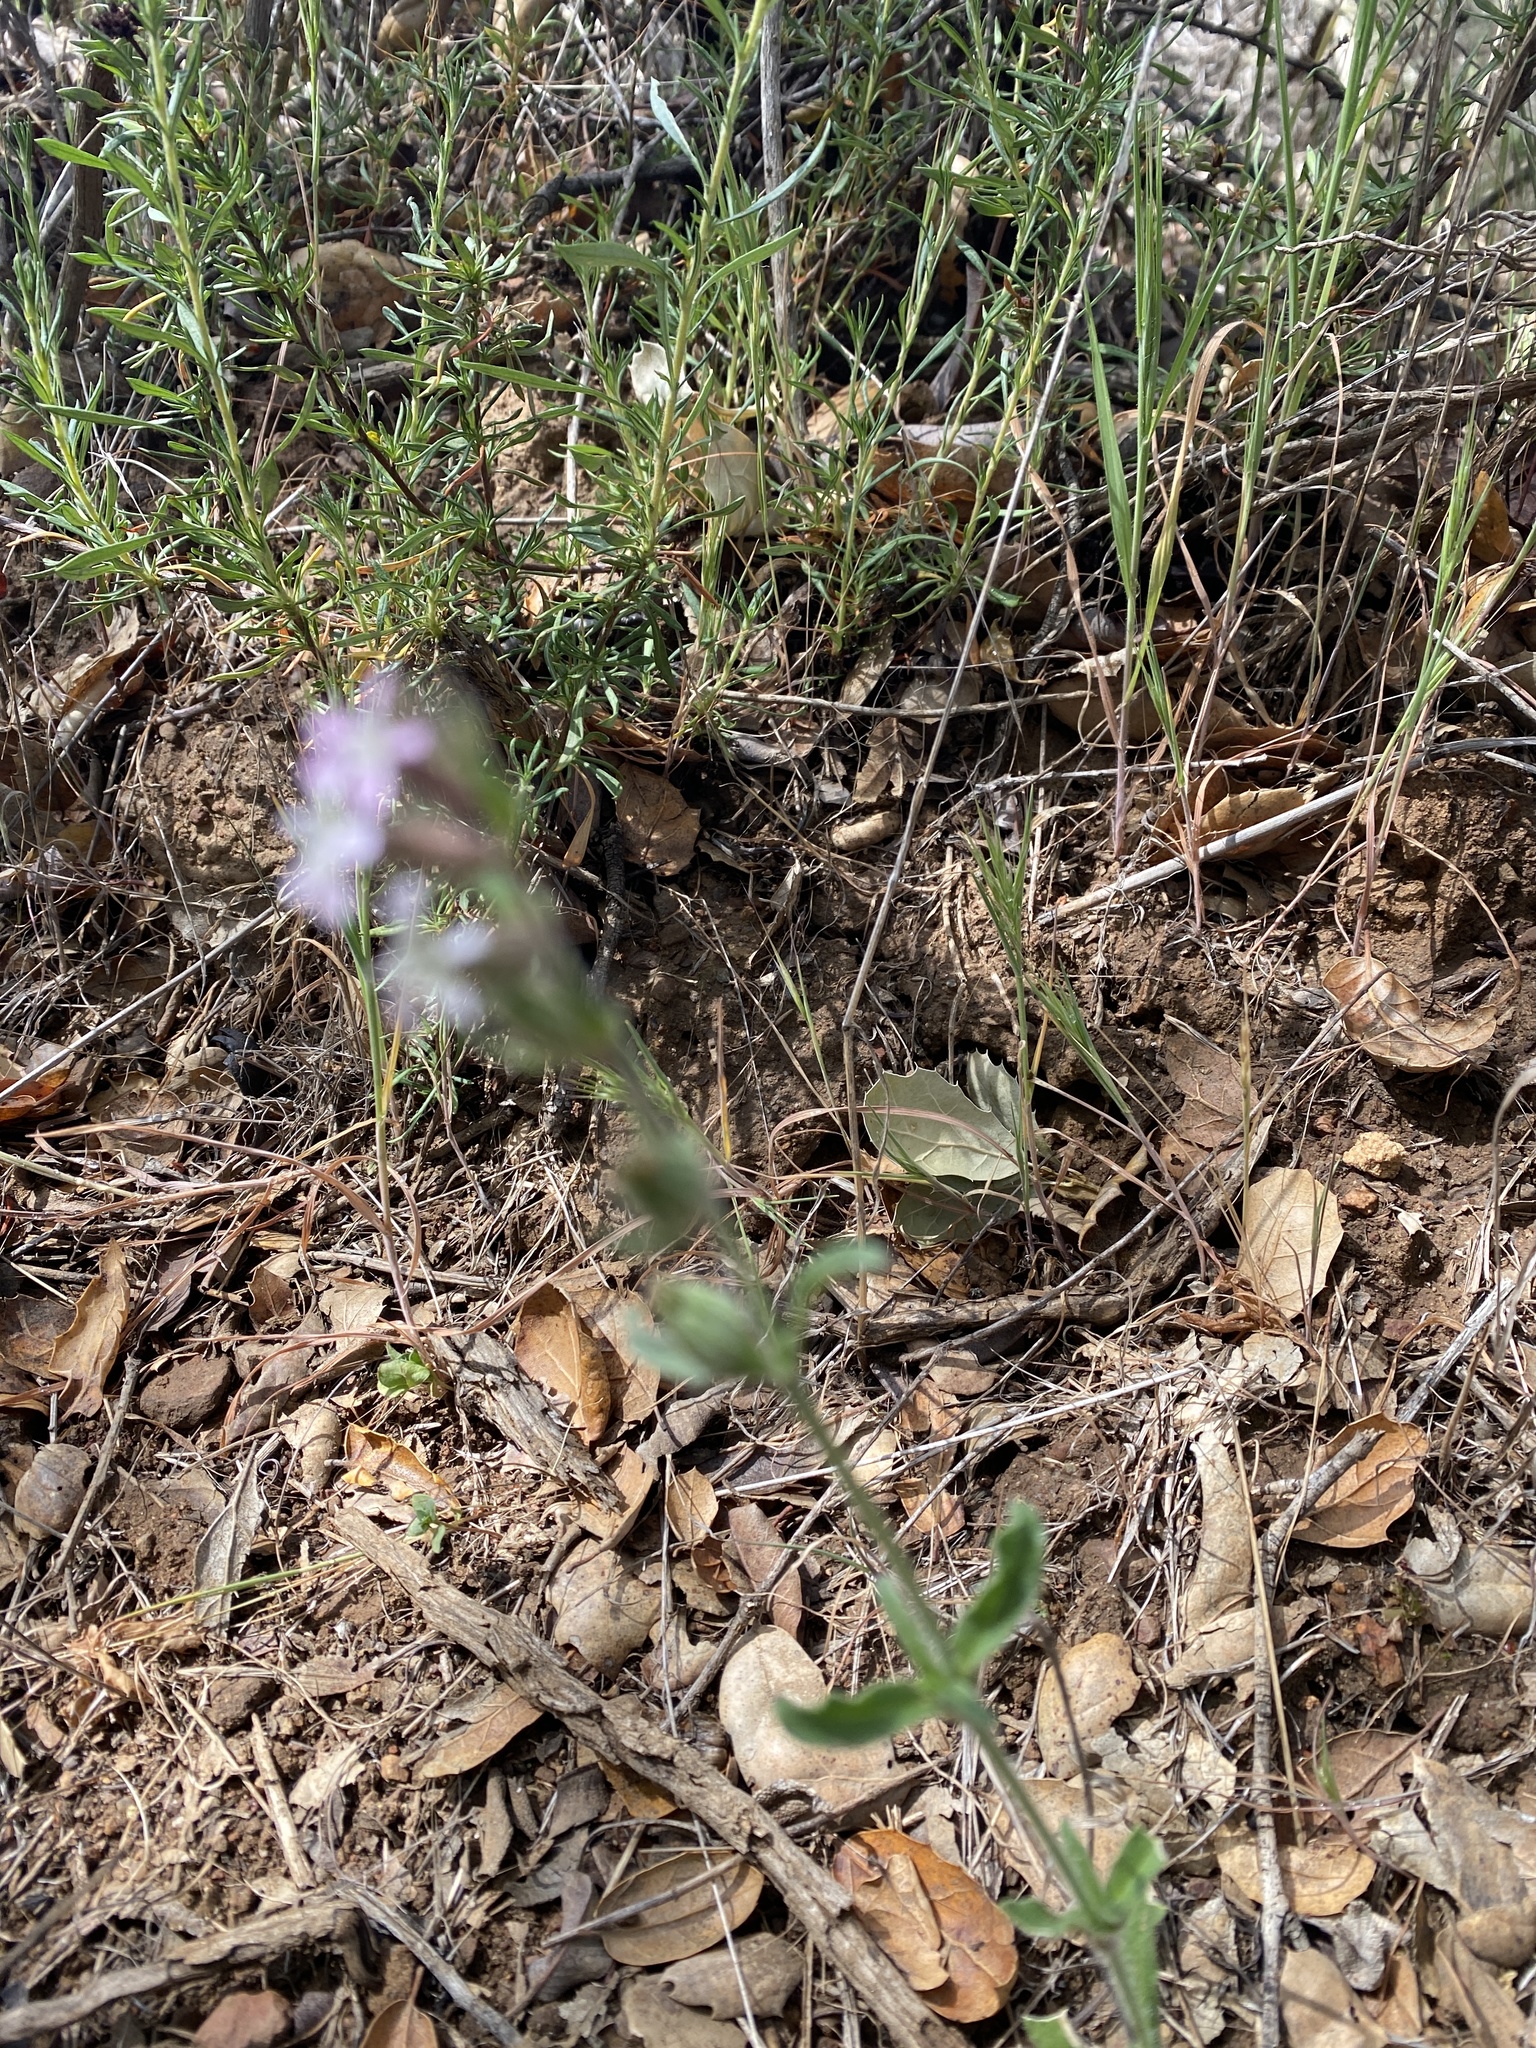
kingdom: Plantae
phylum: Tracheophyta
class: Magnoliopsida
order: Caryophyllales
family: Caryophyllaceae
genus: Silene
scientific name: Silene gallica
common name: Small-flowered catchfly
